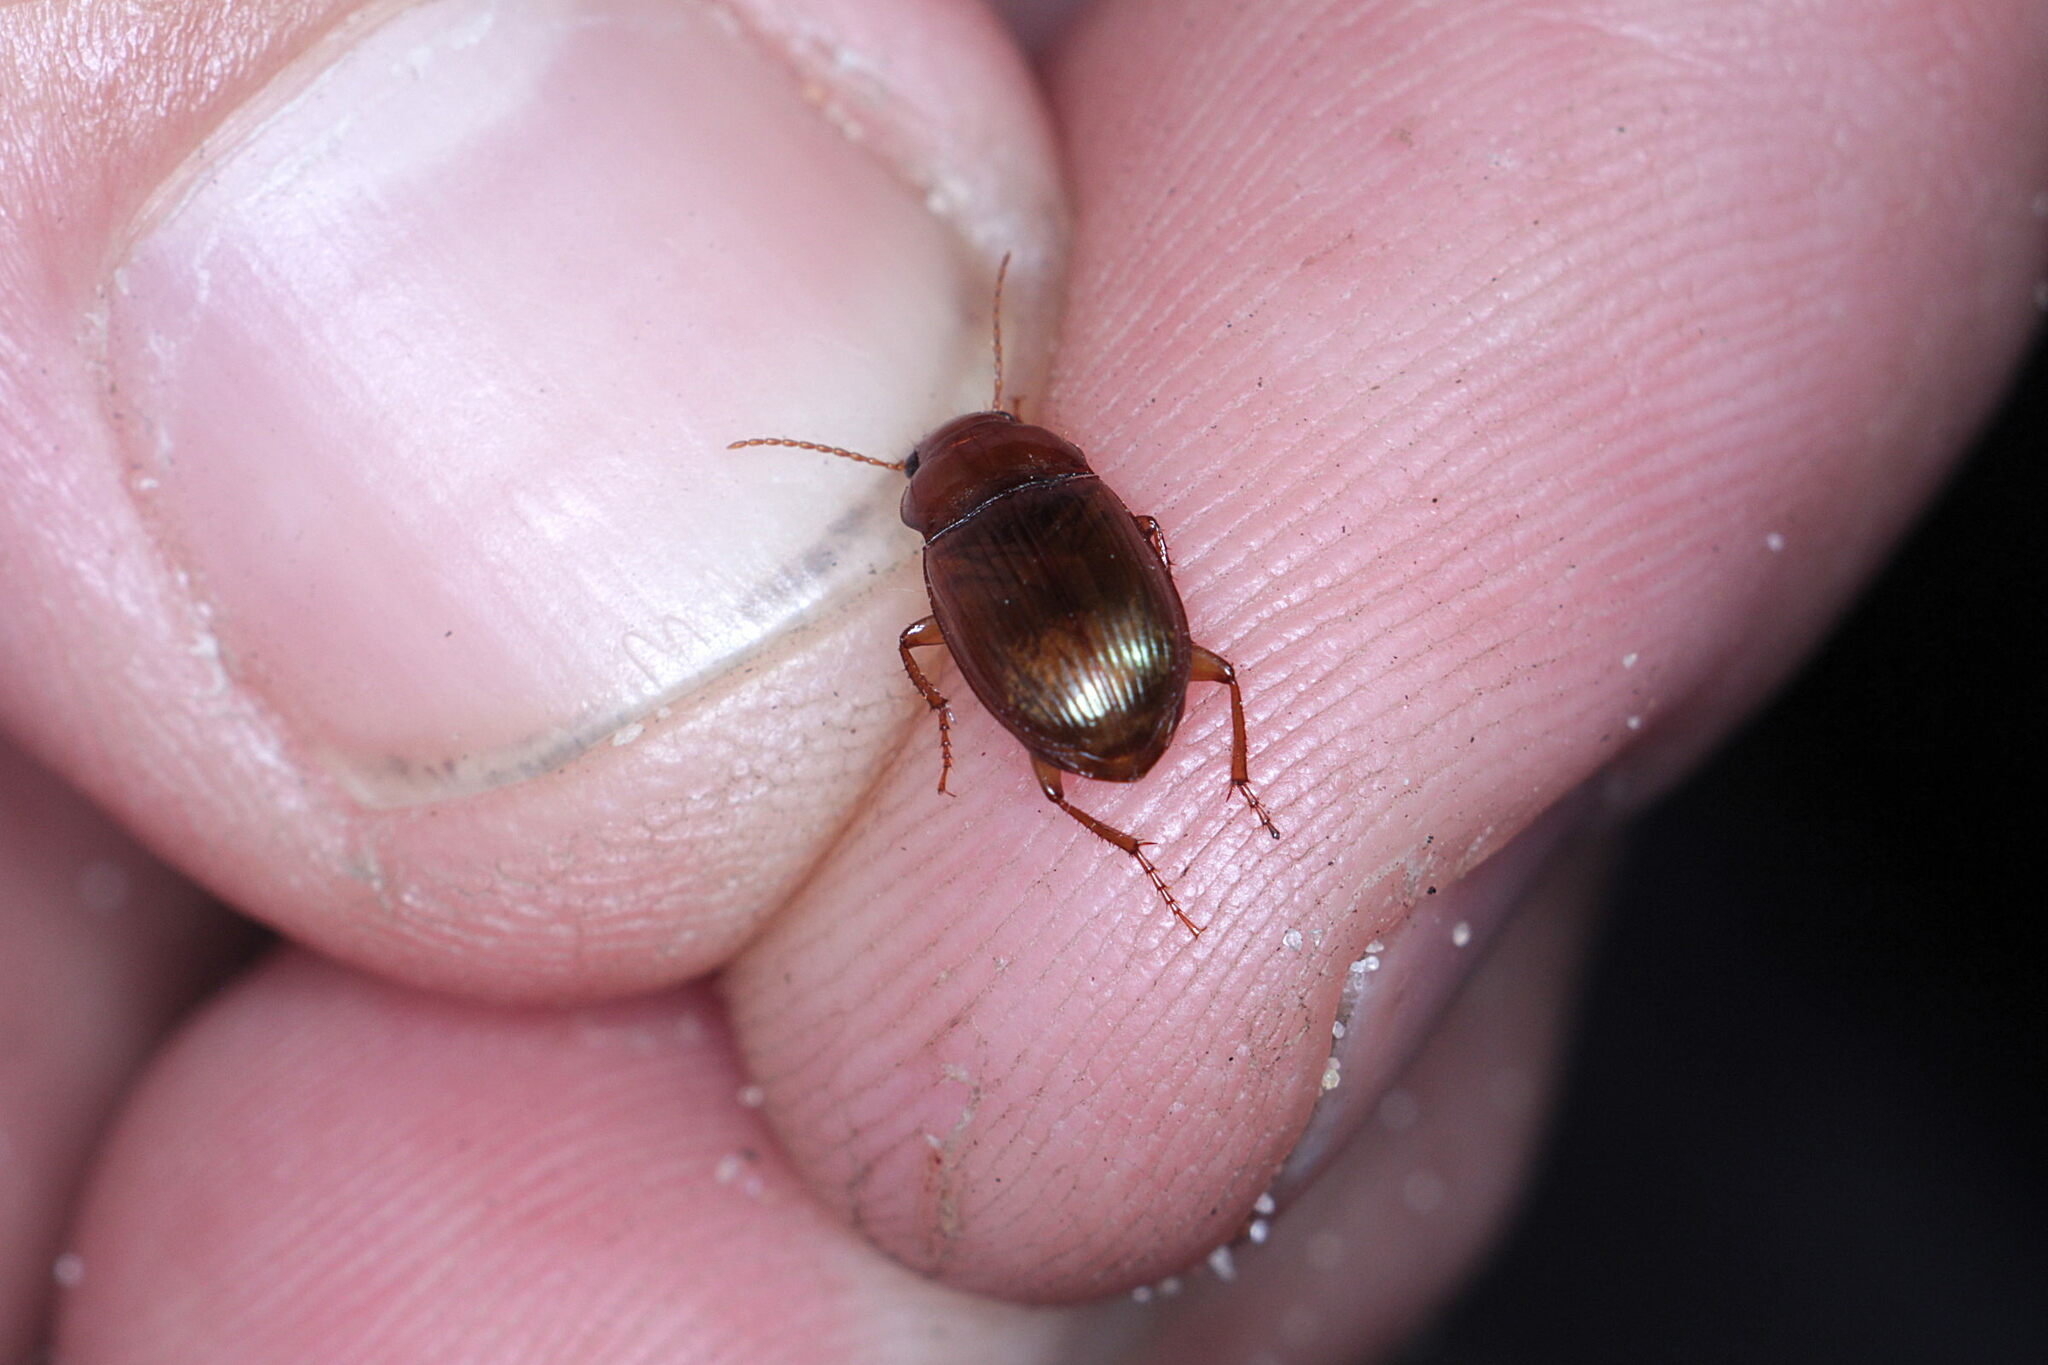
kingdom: Animalia
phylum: Arthropoda
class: Insecta
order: Coleoptera
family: Carabidae
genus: Amara
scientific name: Amara fulva
